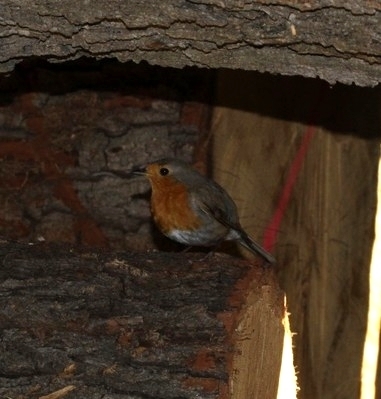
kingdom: Animalia
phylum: Chordata
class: Aves
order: Passeriformes
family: Muscicapidae
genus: Erithacus
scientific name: Erithacus rubecula
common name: European robin
